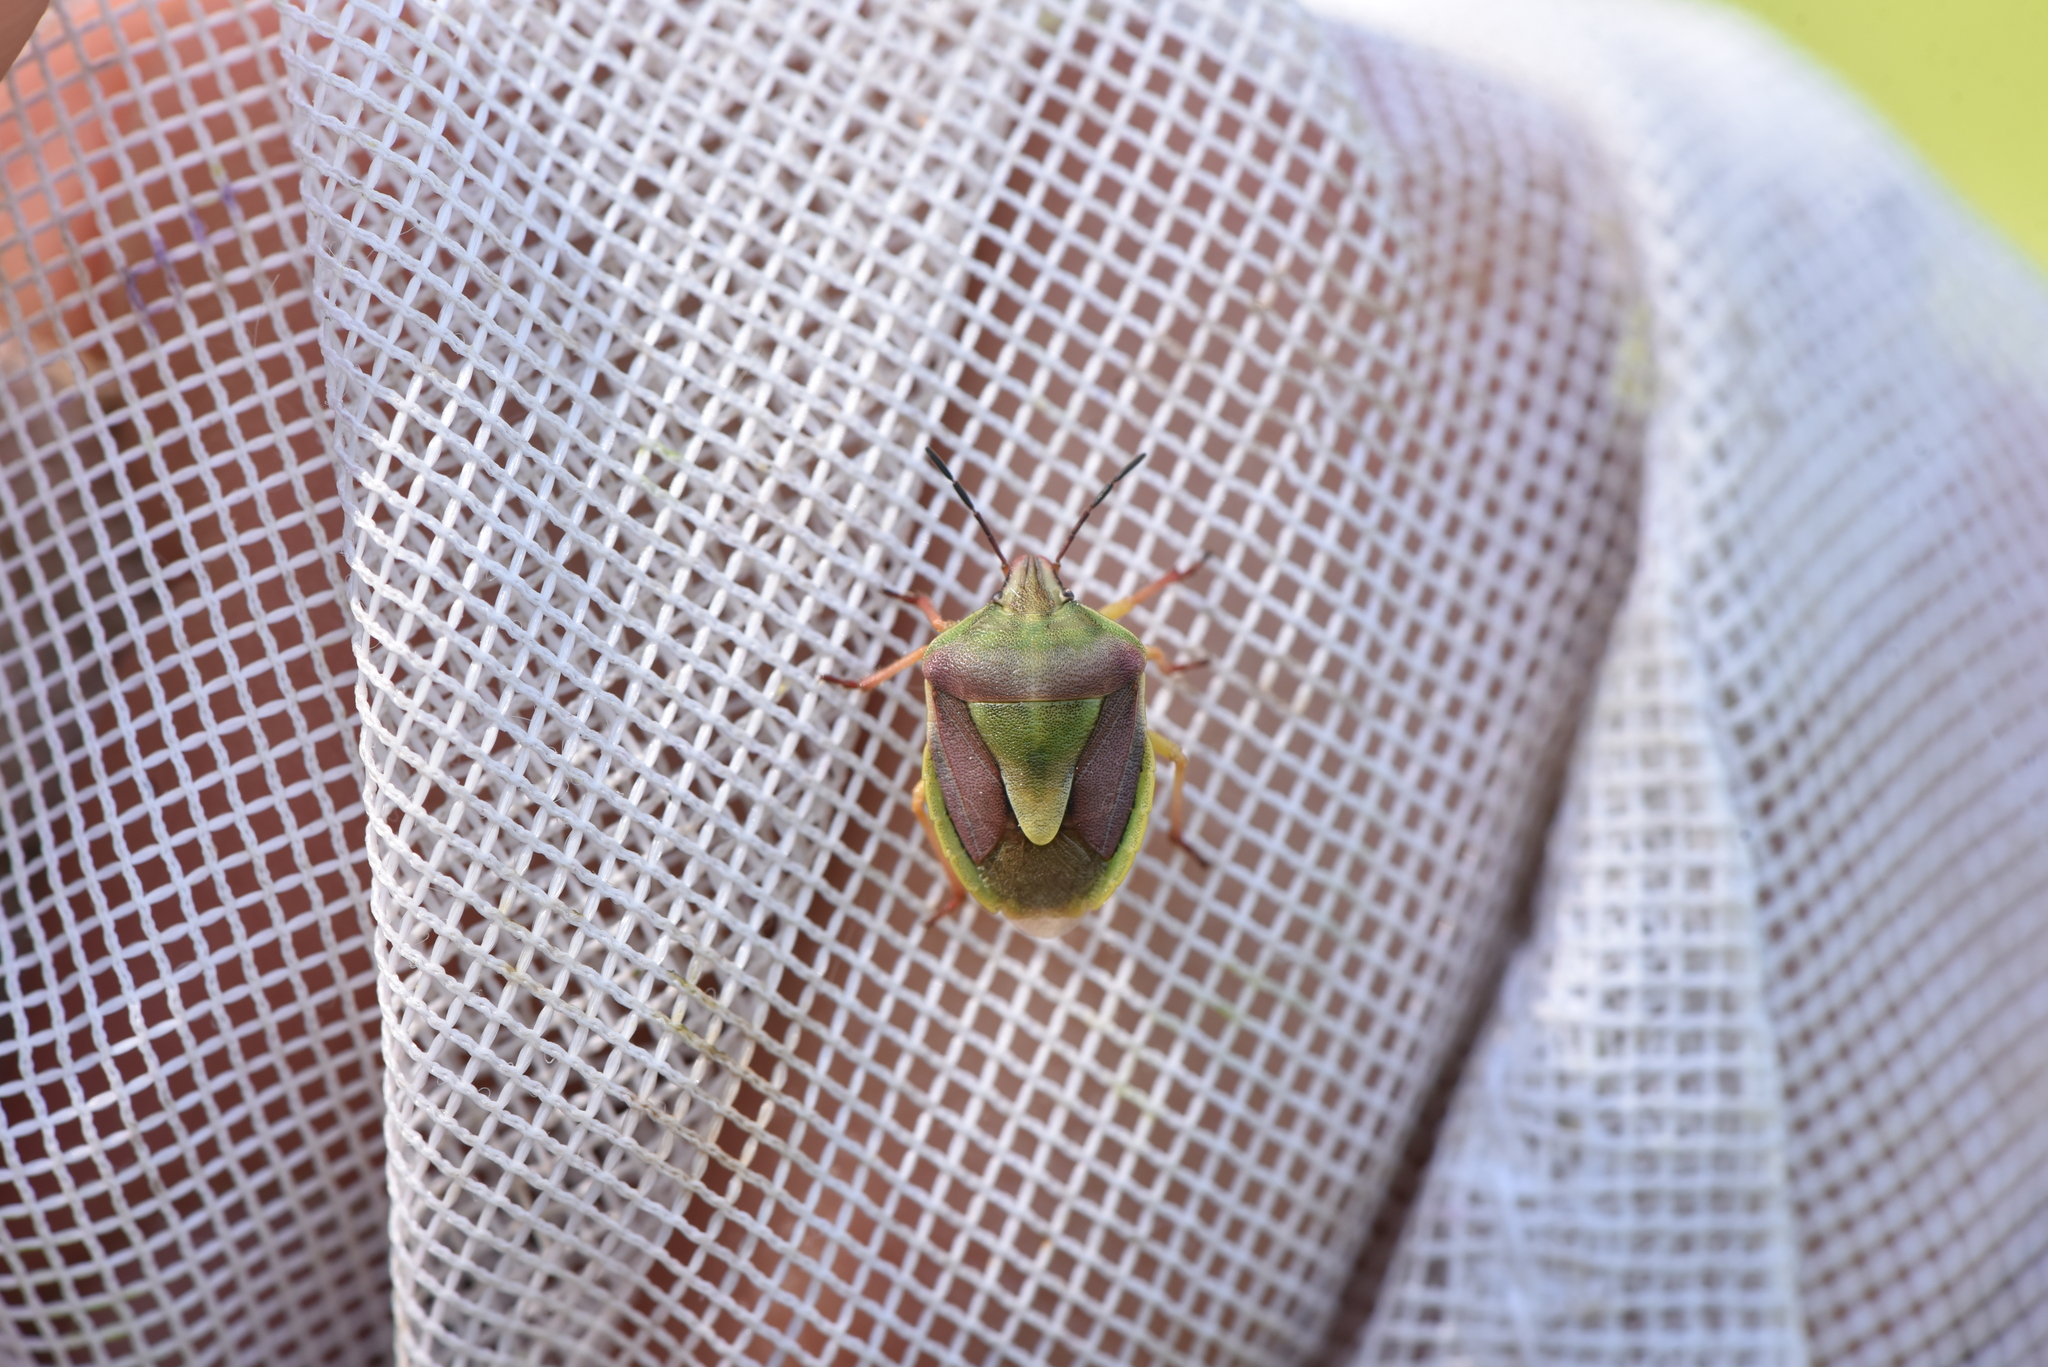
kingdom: Animalia
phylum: Arthropoda
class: Insecta
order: Hemiptera
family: Pentatomidae
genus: Antheminia
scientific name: Antheminia
